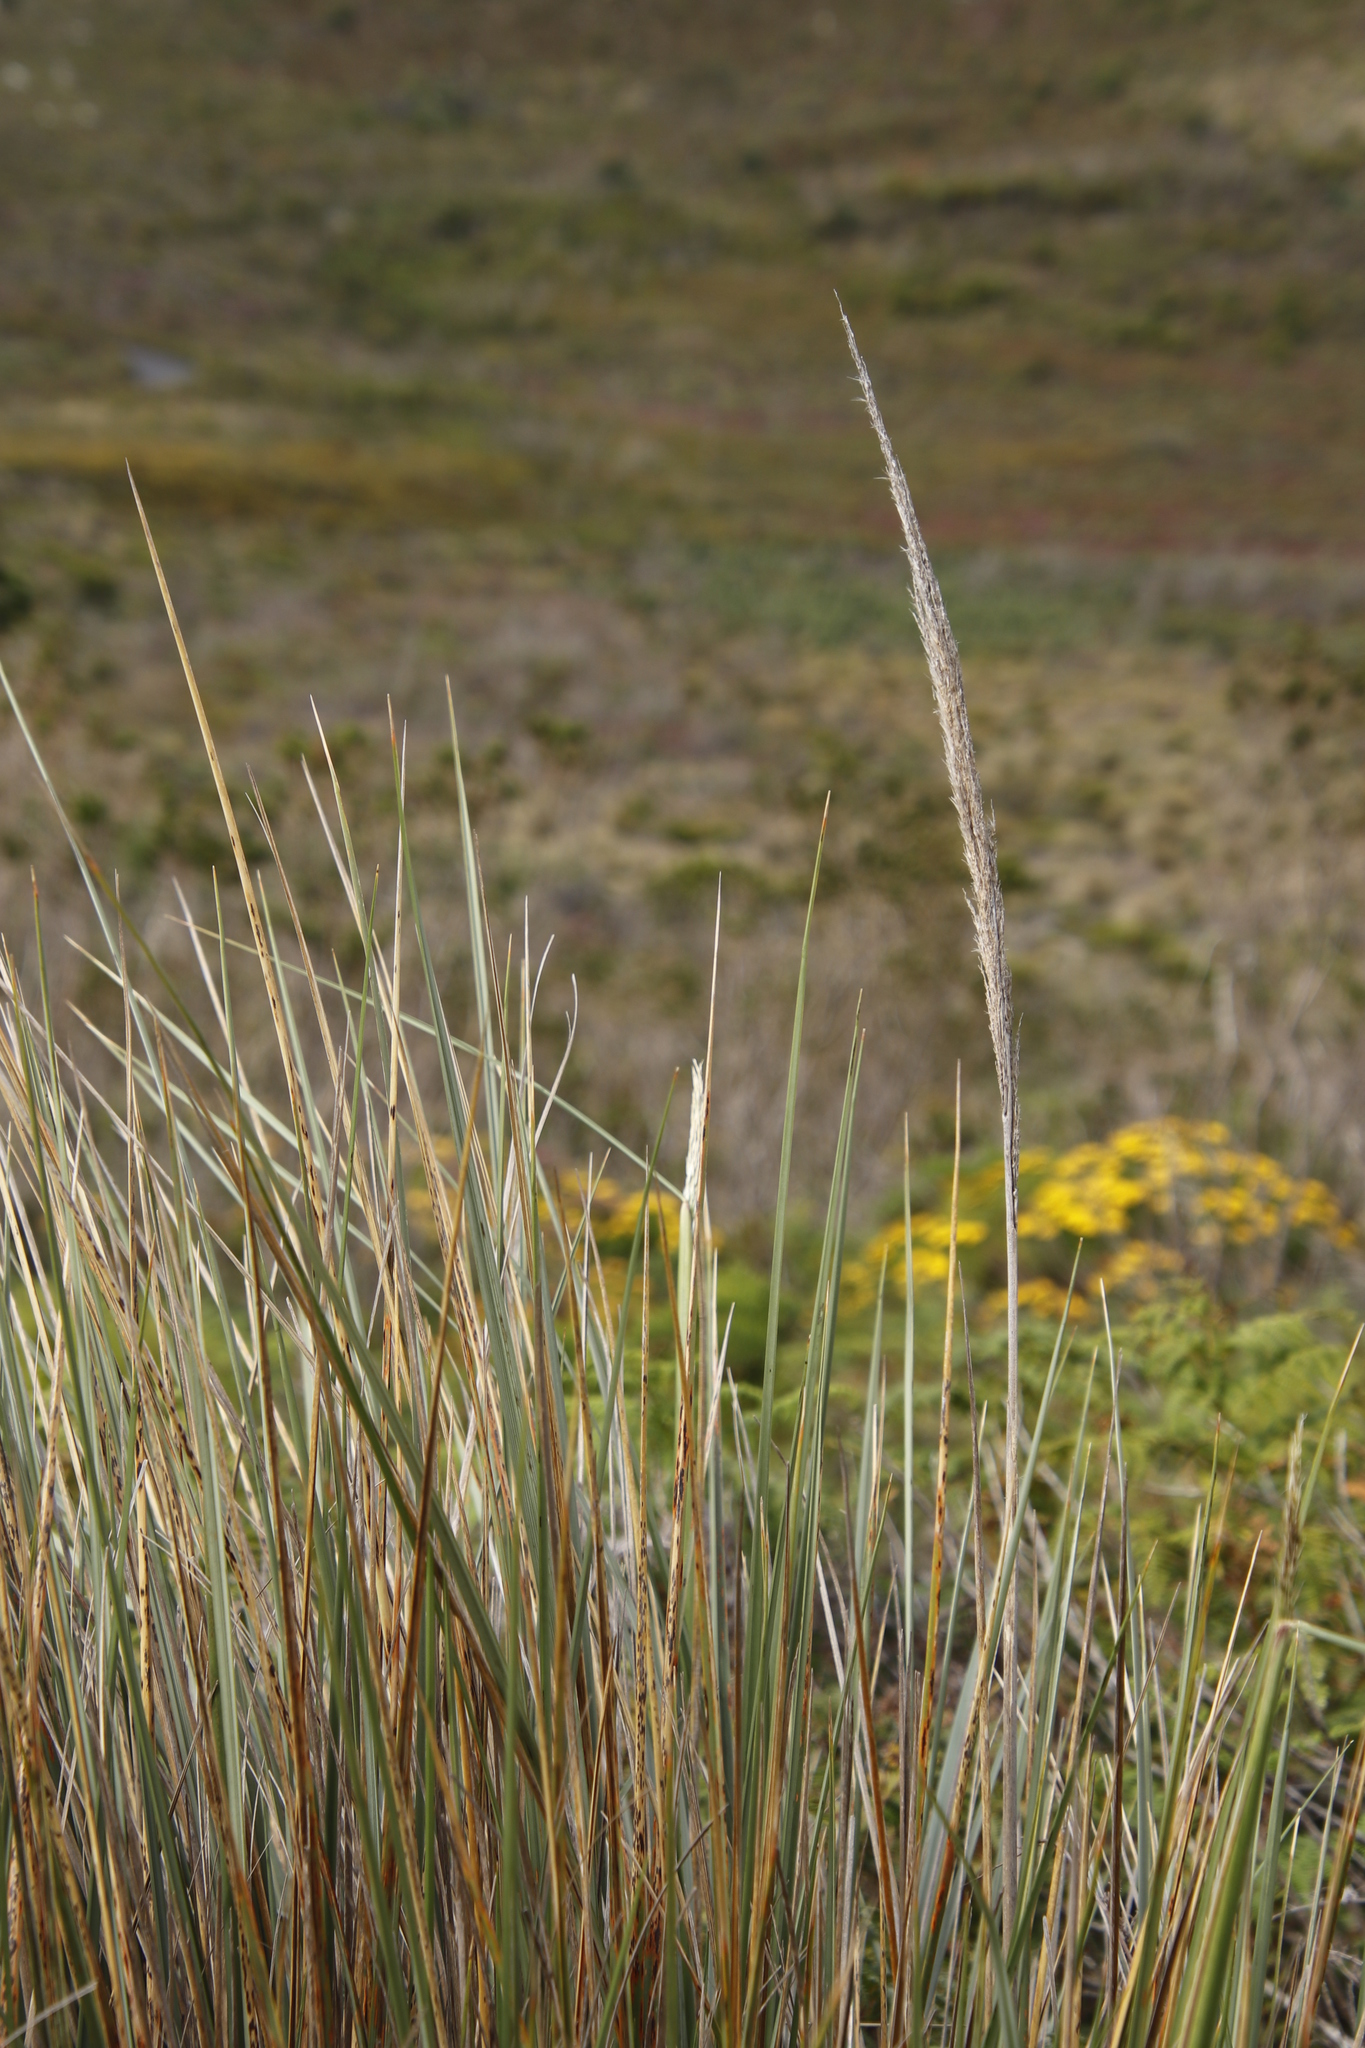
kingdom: Plantae
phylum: Tracheophyta
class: Liliopsida
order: Poales
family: Poaceae
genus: Capeochloa
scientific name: Capeochloa cincta
